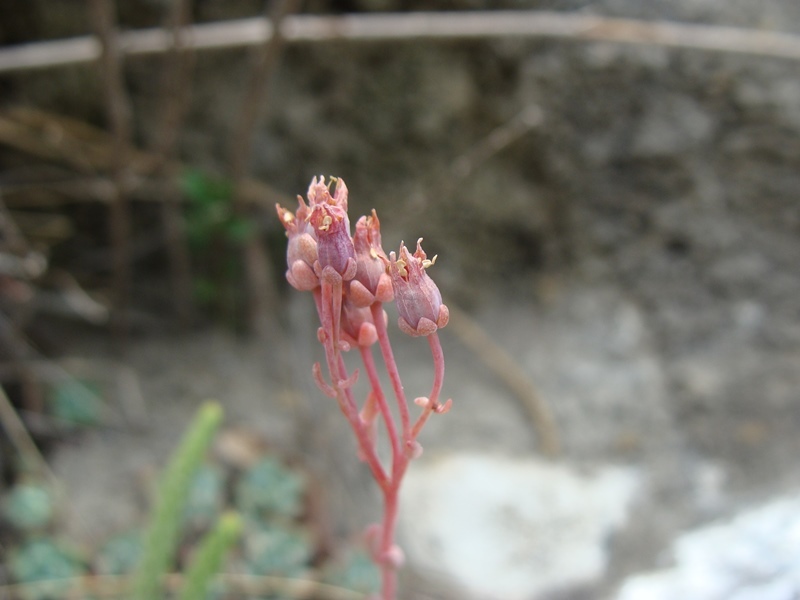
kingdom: Plantae
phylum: Tracheophyta
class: Magnoliopsida
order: Saxifragales
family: Crassulaceae
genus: Echeveria
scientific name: Echeveria amoena
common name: Baby echeveria
